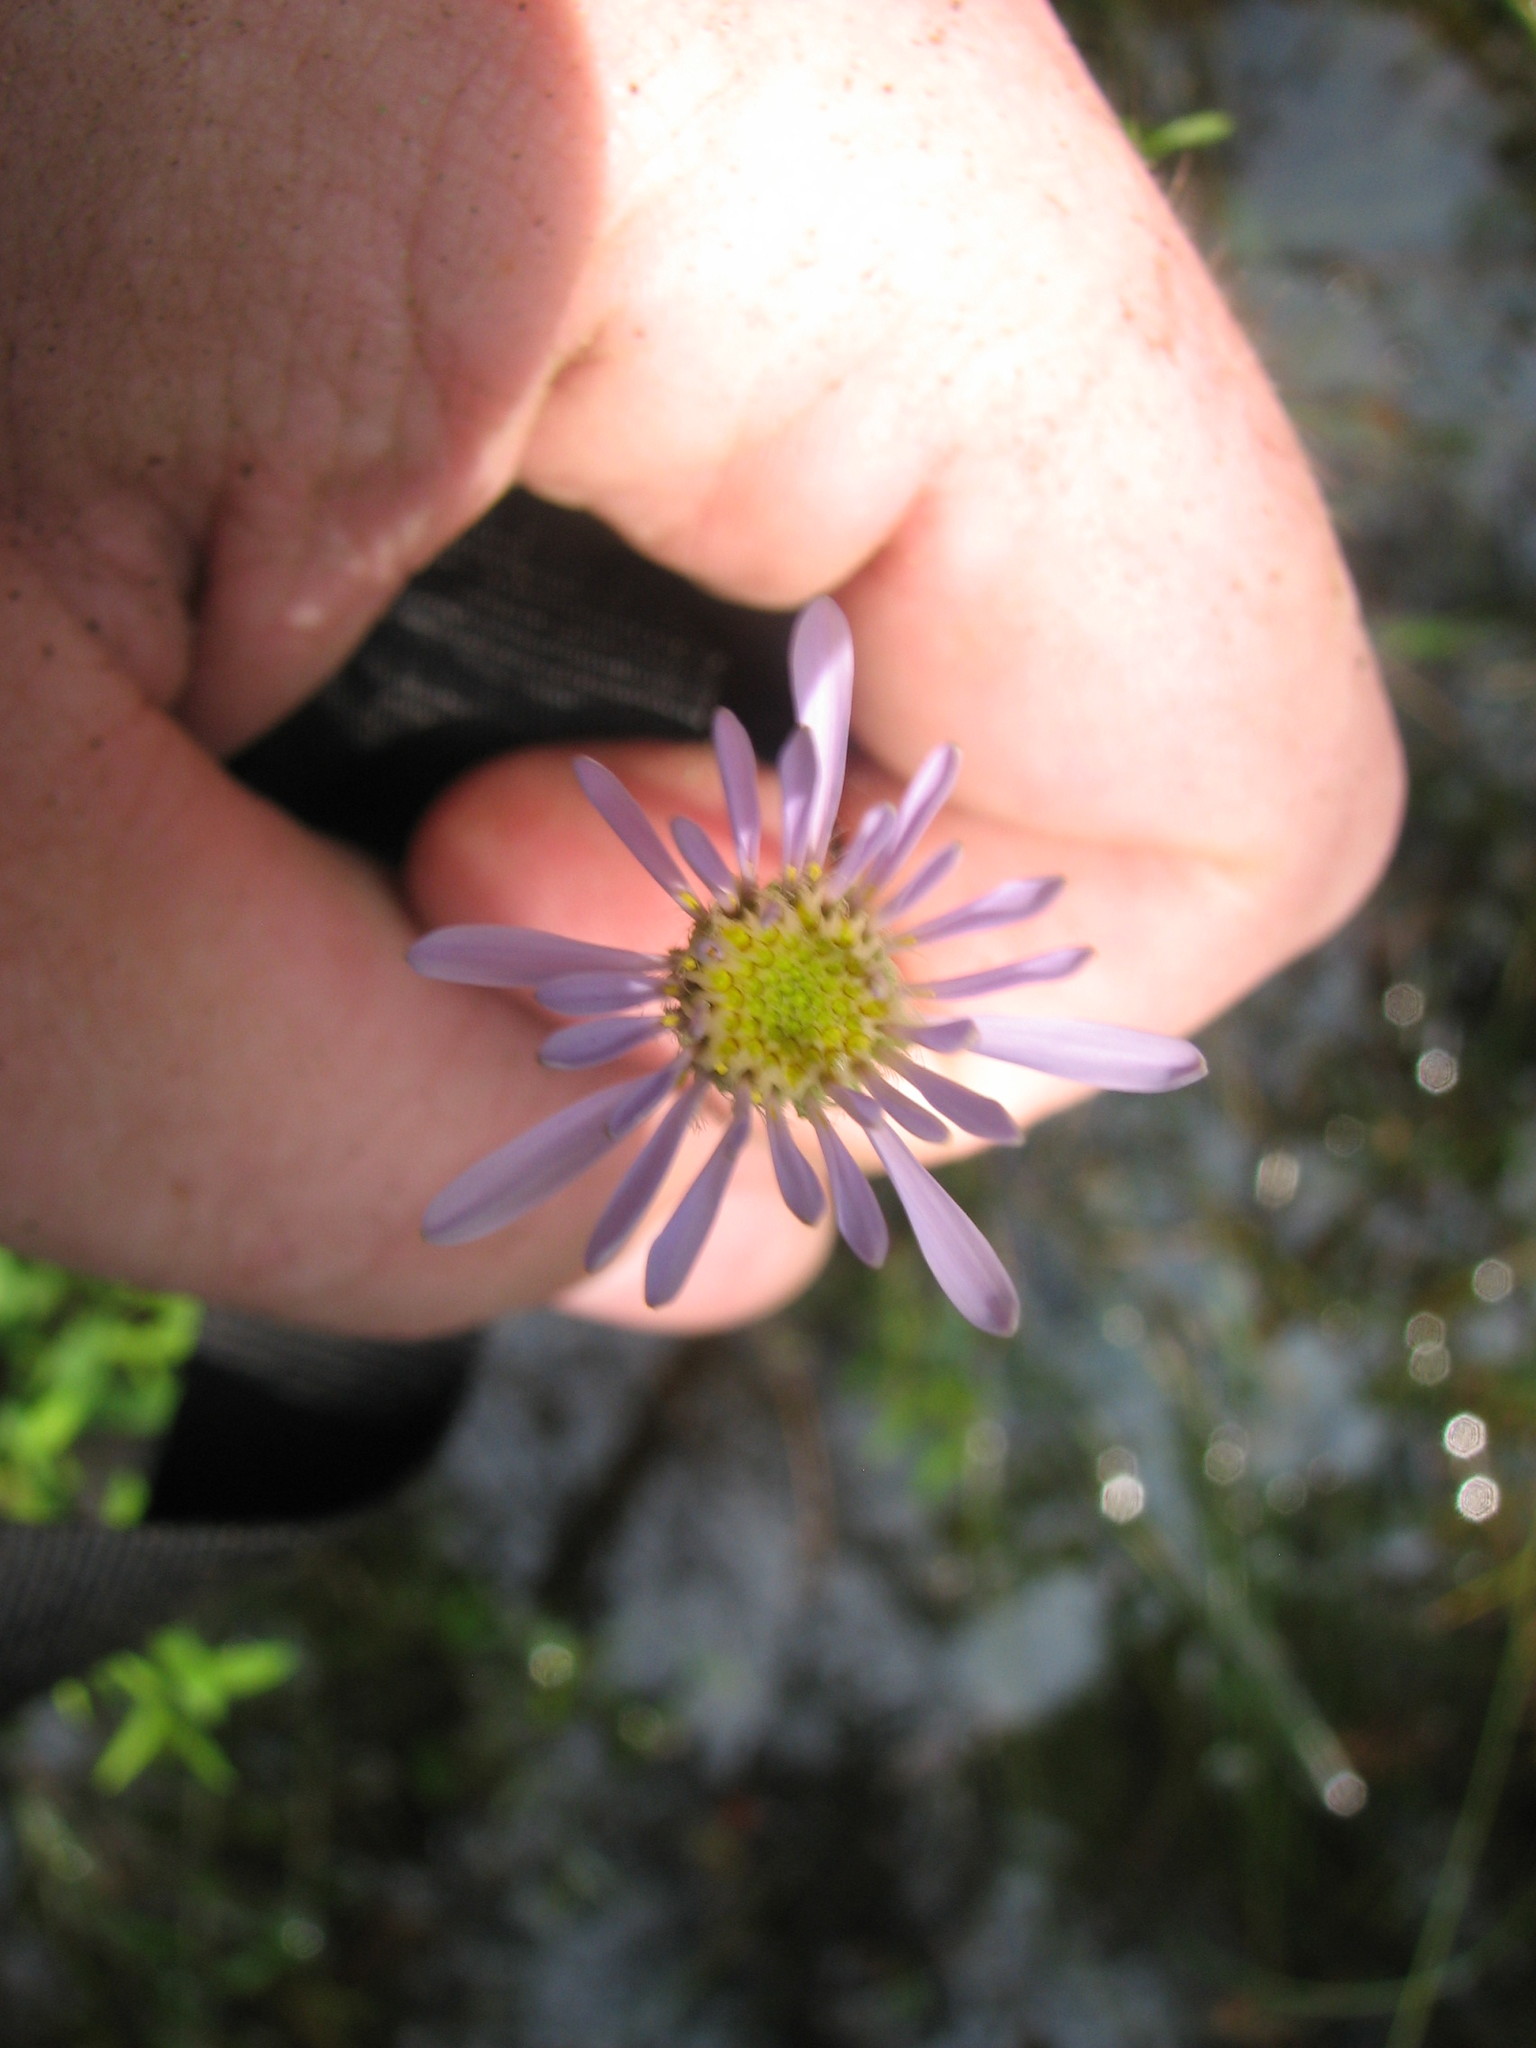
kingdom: Plantae
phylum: Tracheophyta
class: Magnoliopsida
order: Asterales
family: Asteraceae
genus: Oclemena
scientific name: Oclemena nemoralis
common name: Bog aster
